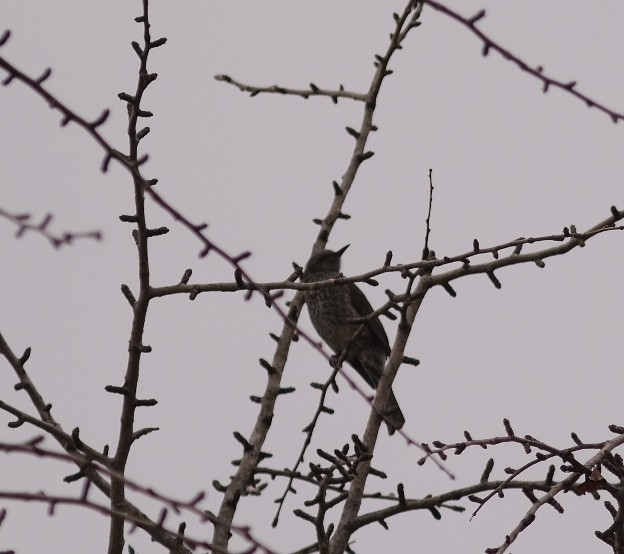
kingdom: Animalia
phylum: Chordata
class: Aves
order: Passeriformes
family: Pycnonotidae
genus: Hypsipetes
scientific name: Hypsipetes amaurotis
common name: Brown-eared bulbul
